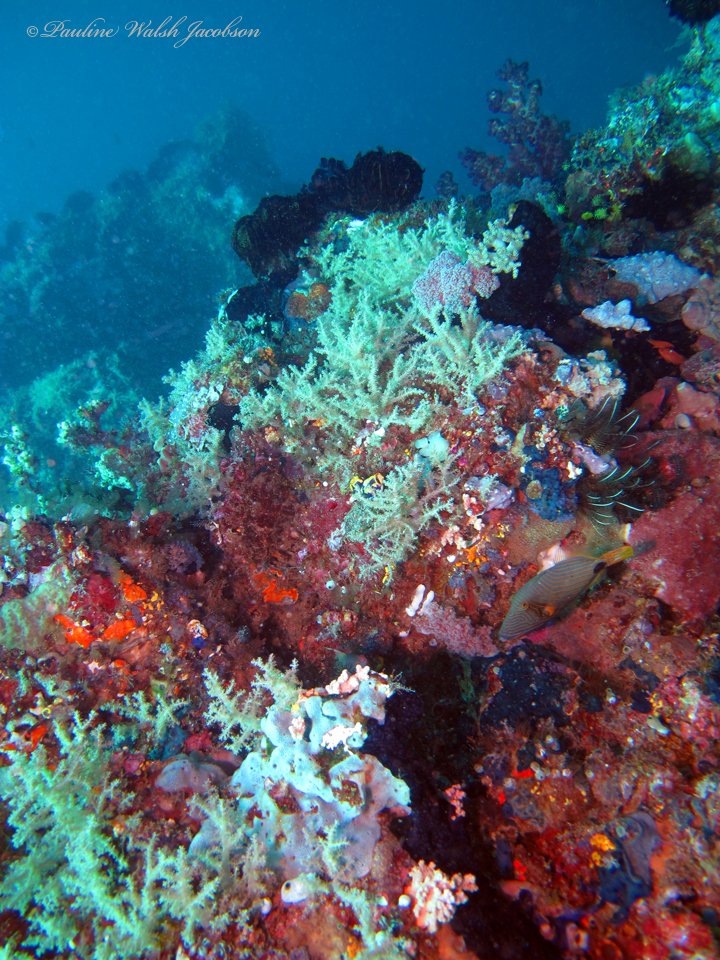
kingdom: Animalia
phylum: Chordata
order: Tetraodontiformes
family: Balistidae
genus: Balistapus
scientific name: Balistapus undulatus
